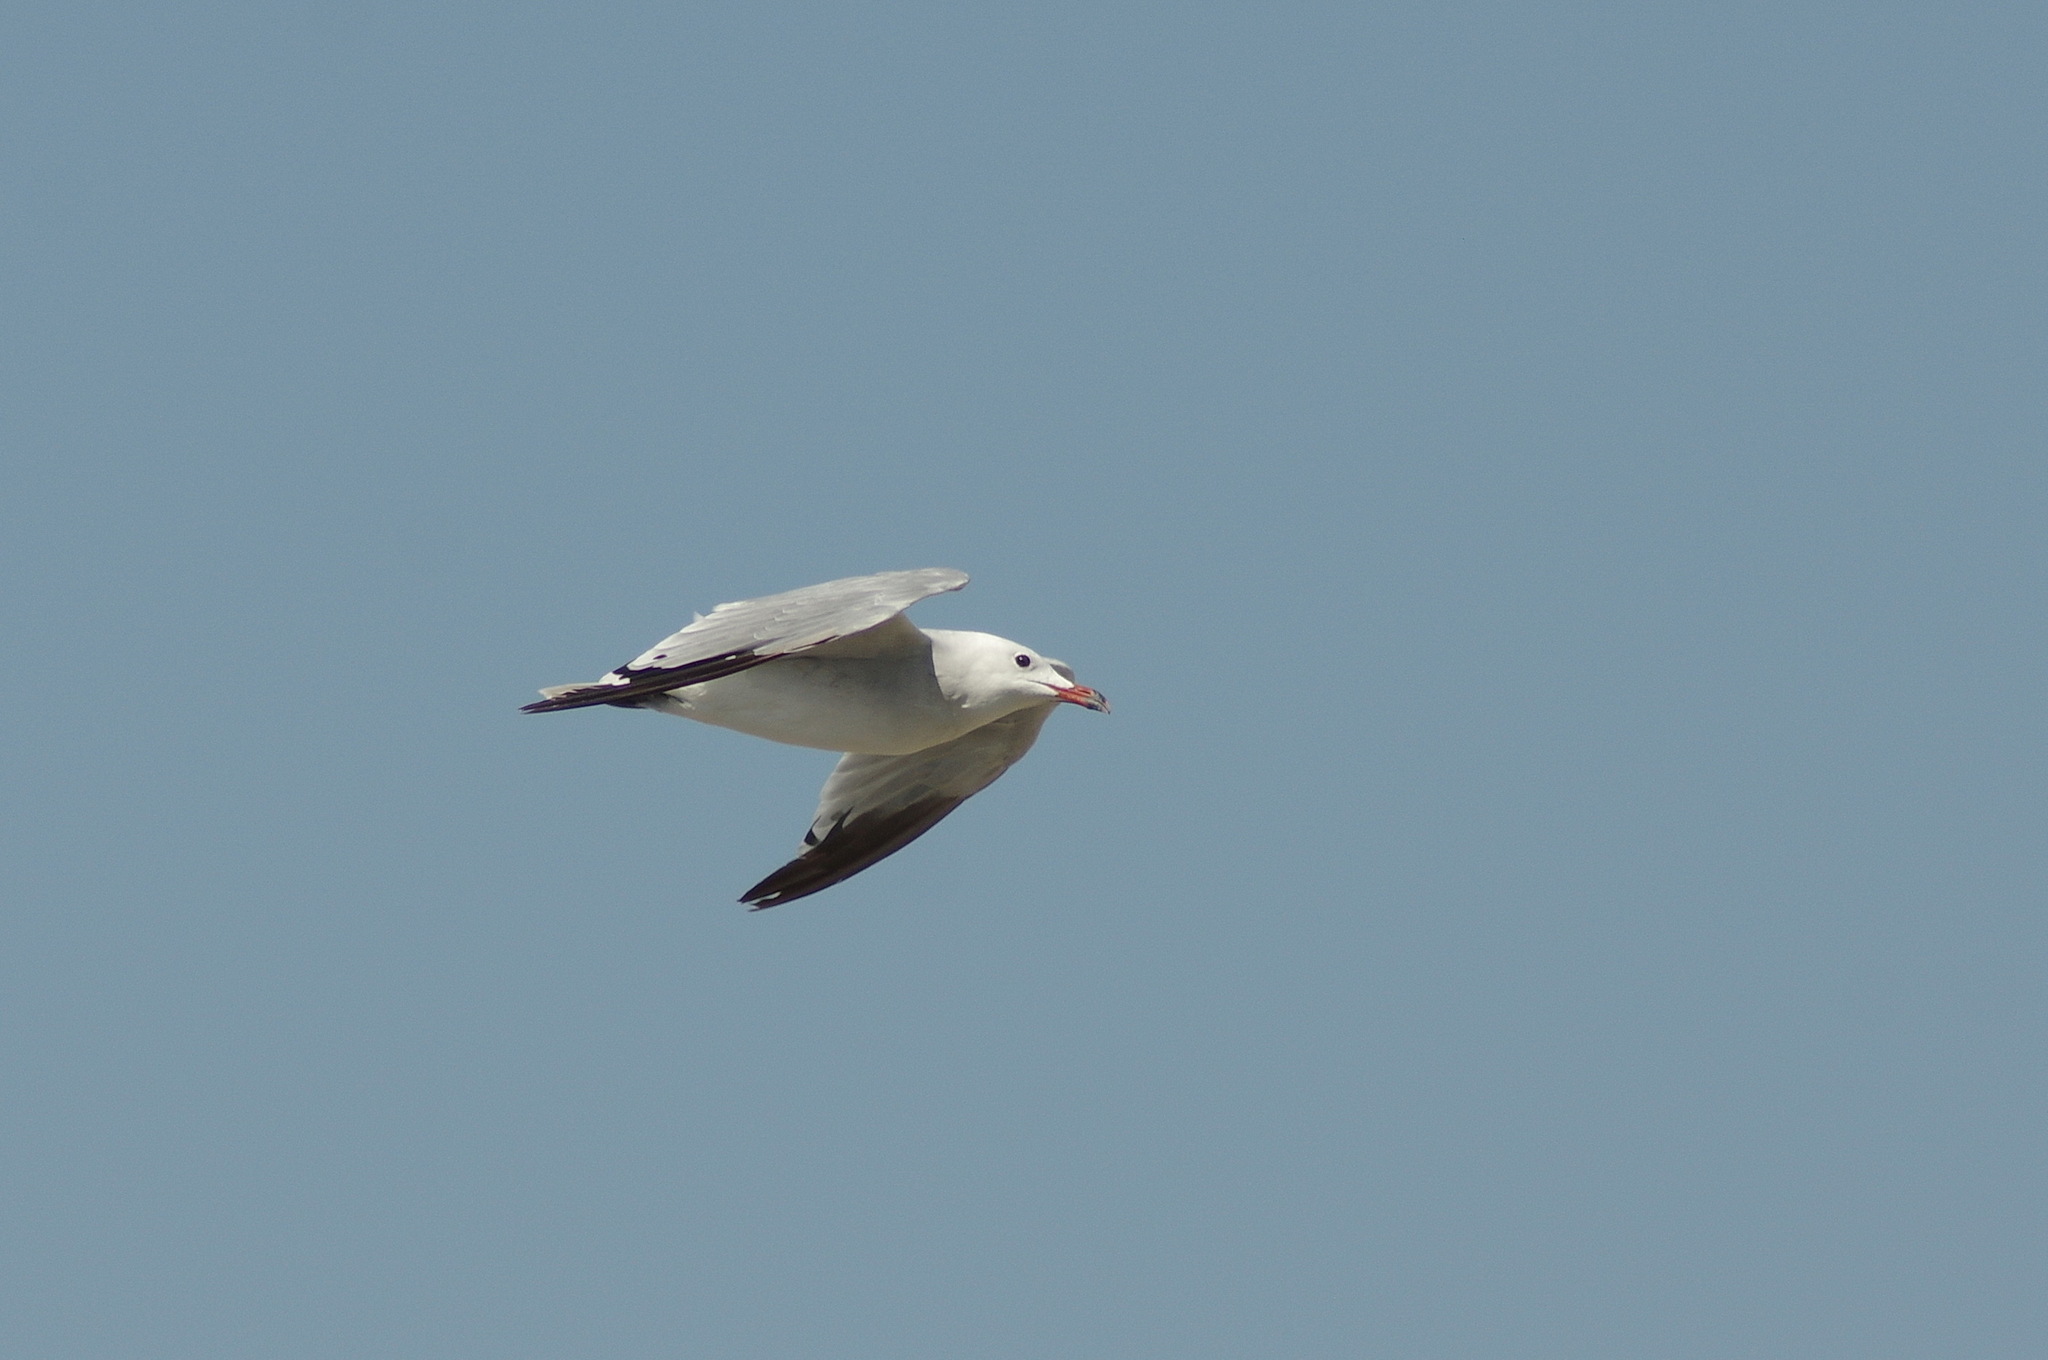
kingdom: Animalia
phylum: Chordata
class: Aves
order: Charadriiformes
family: Laridae
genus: Ichthyaetus
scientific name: Ichthyaetus audouinii
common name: Audouin's gull
